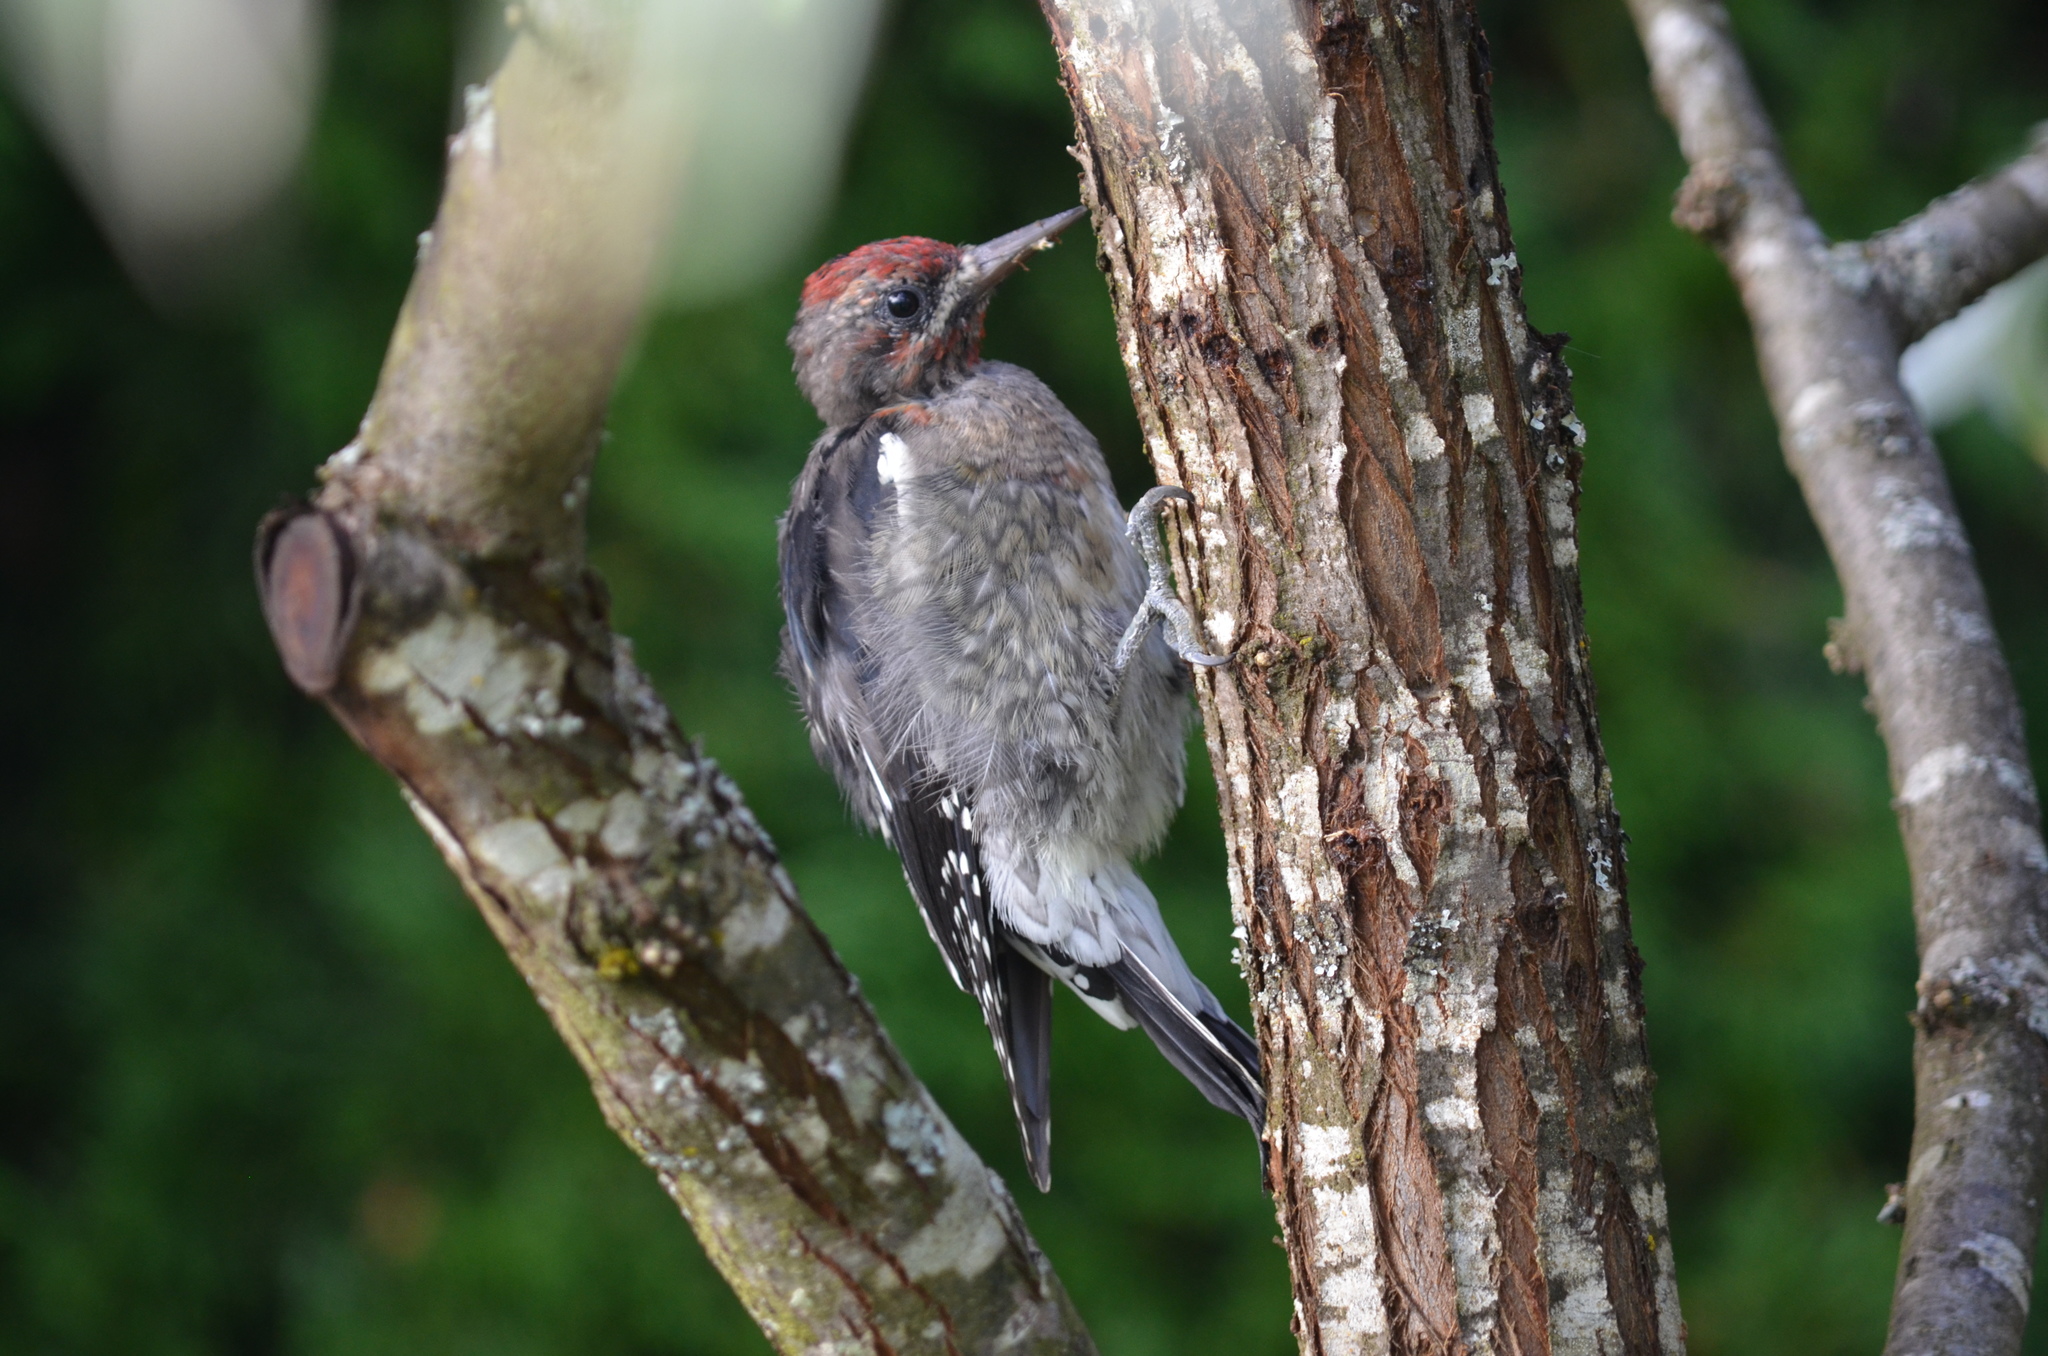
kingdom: Animalia
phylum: Chordata
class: Aves
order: Piciformes
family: Picidae
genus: Sphyrapicus
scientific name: Sphyrapicus ruber
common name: Red-breasted sapsucker
